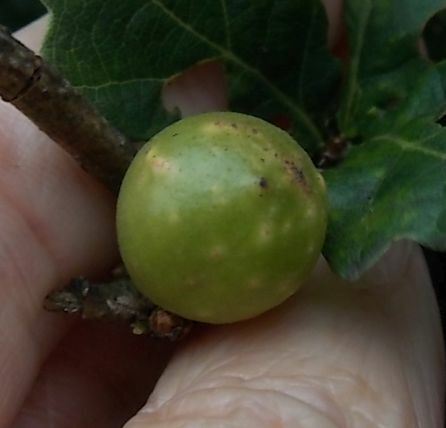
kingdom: Animalia
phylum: Arthropoda
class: Insecta
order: Hymenoptera
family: Cynipidae
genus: Andricus
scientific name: Andricus infectorius
